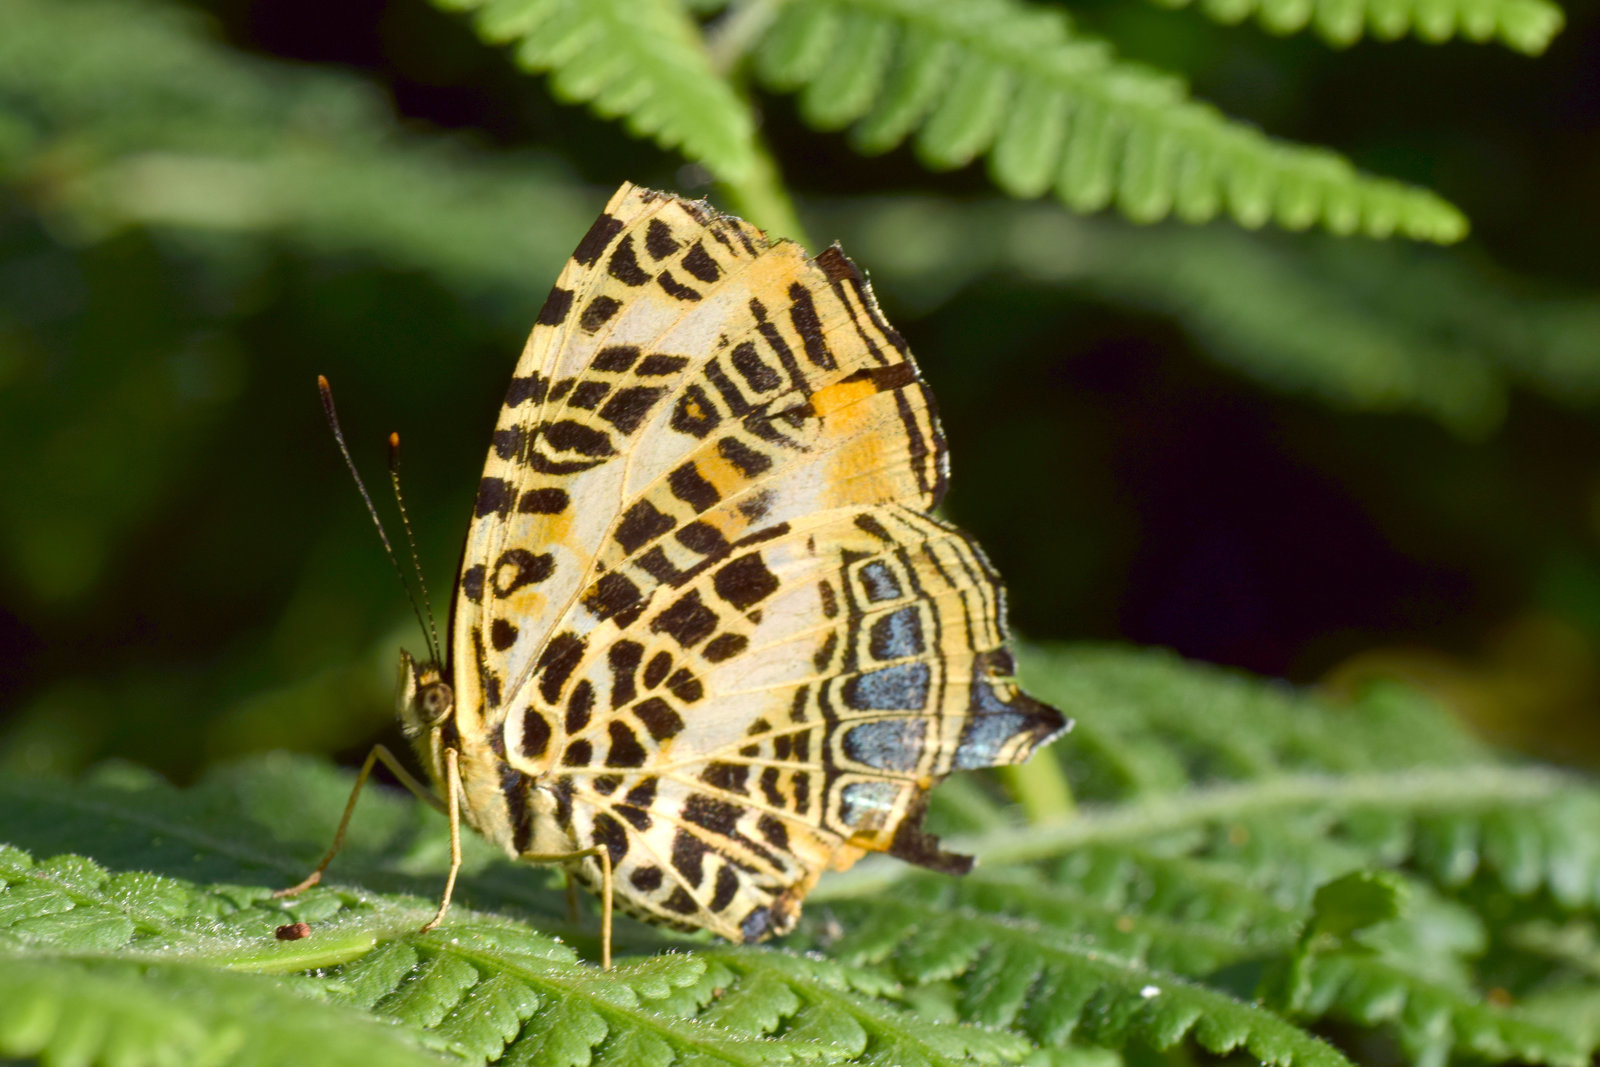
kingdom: Animalia
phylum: Arthropoda
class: Insecta
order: Lepidoptera
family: Nymphalidae
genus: Symbrenthia
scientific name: Symbrenthia niphanda
